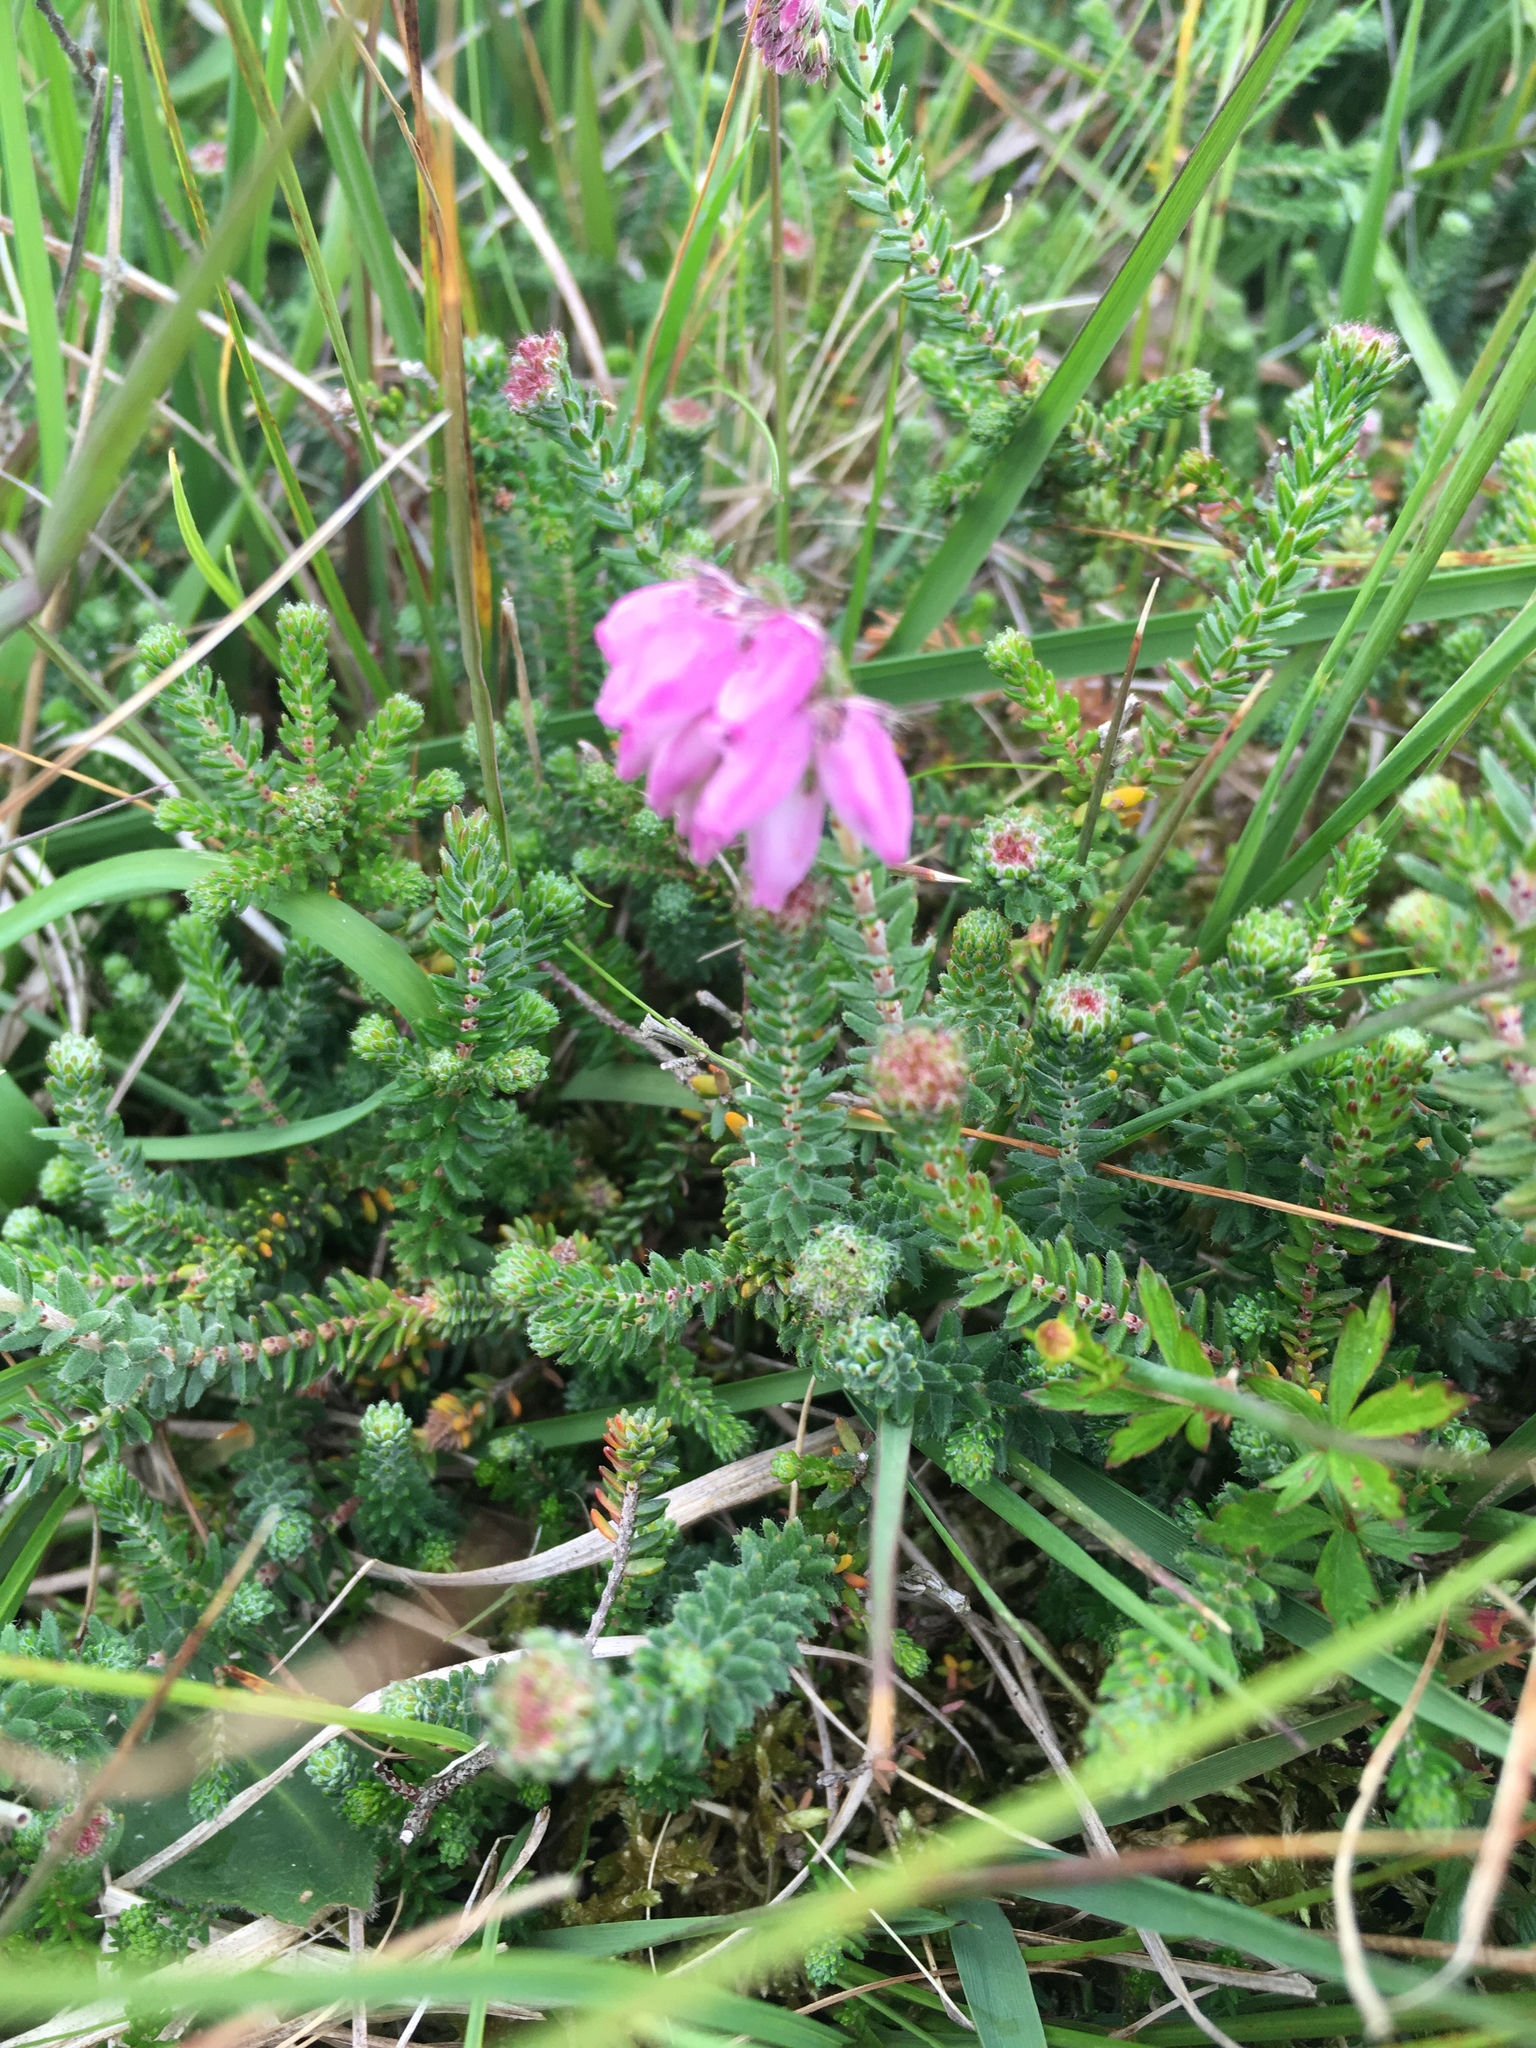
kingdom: Plantae
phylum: Tracheophyta
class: Magnoliopsida
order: Ericales
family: Ericaceae
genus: Erica
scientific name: Erica tetralix
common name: Cross-leaved heath
